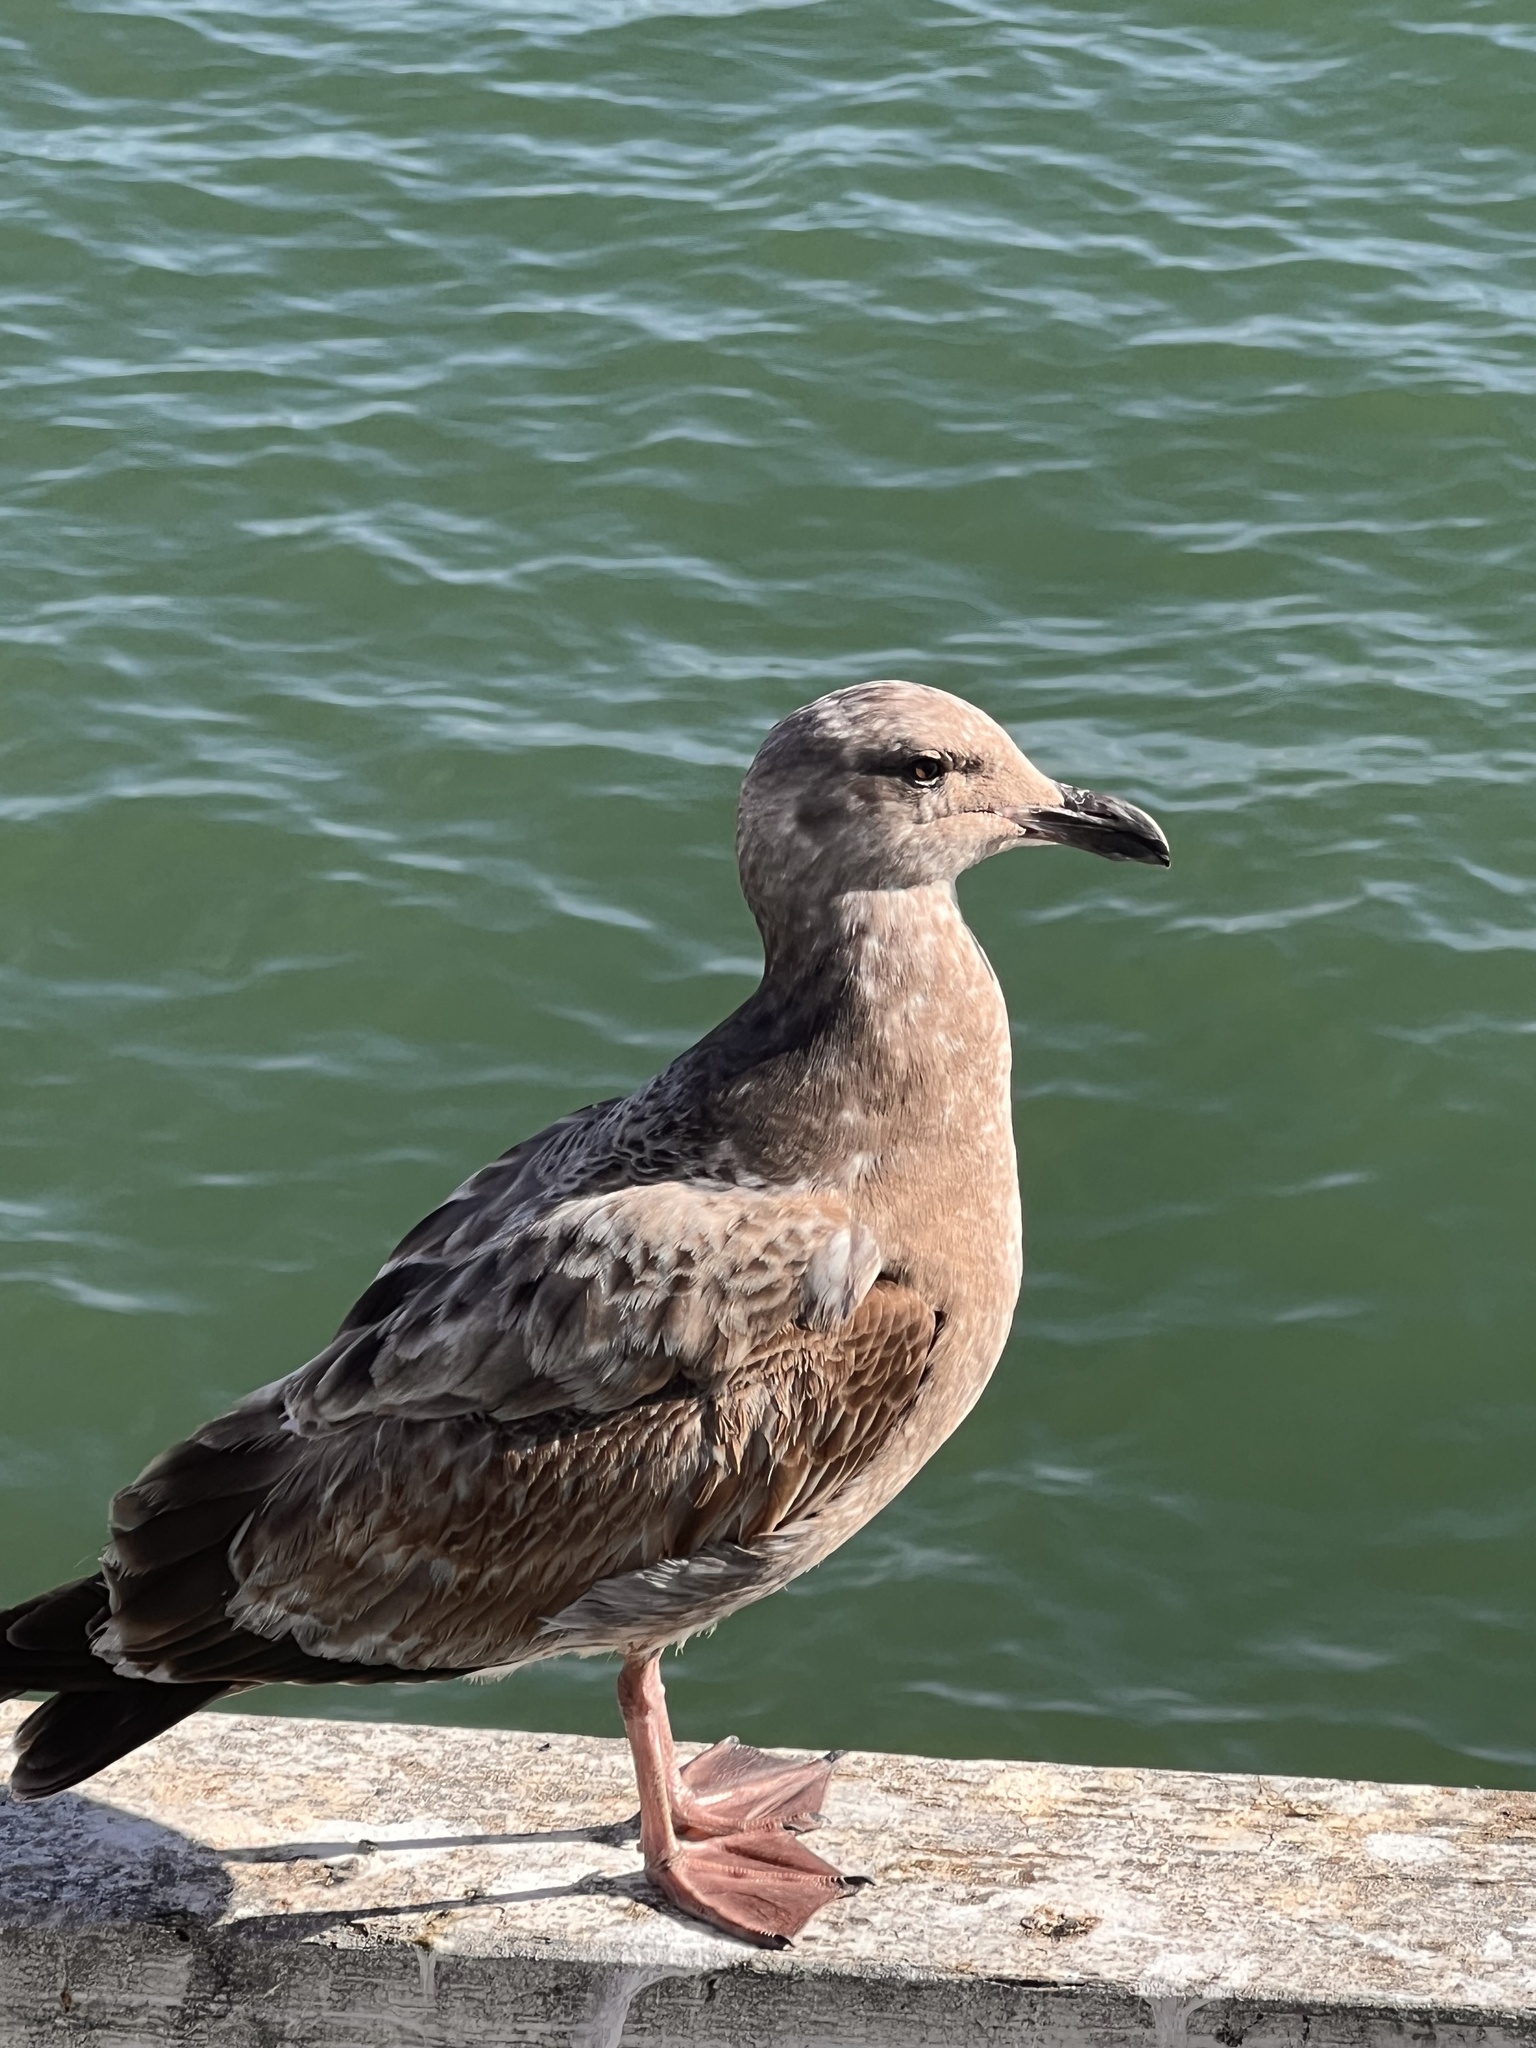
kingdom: Animalia
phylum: Chordata
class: Aves
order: Charadriiformes
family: Laridae
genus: Larus
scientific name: Larus occidentalis
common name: Western gull
